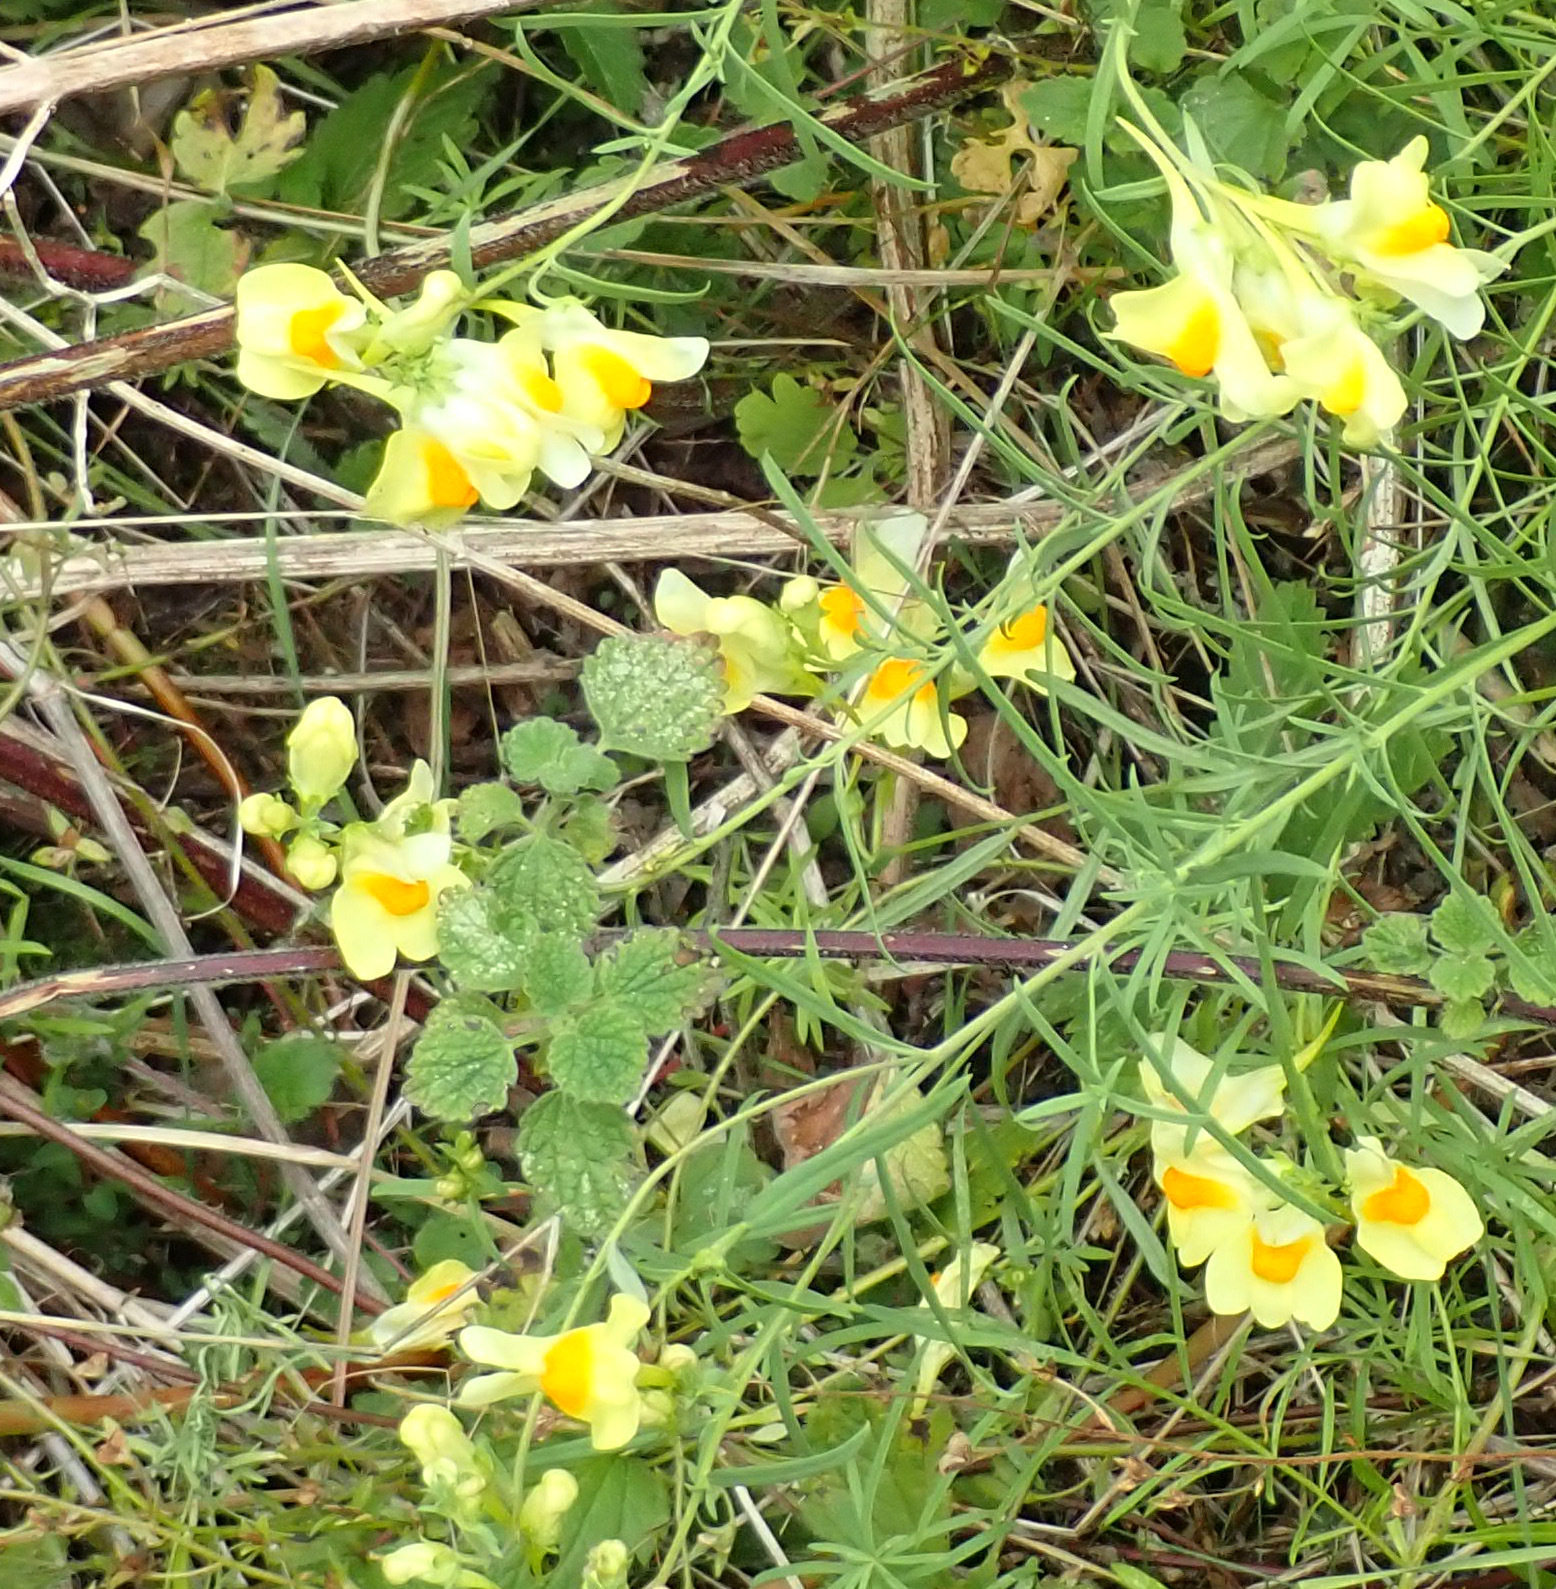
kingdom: Plantae
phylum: Tracheophyta
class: Magnoliopsida
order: Lamiales
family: Plantaginaceae
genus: Linaria
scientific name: Linaria vulgaris
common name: Butter and eggs
